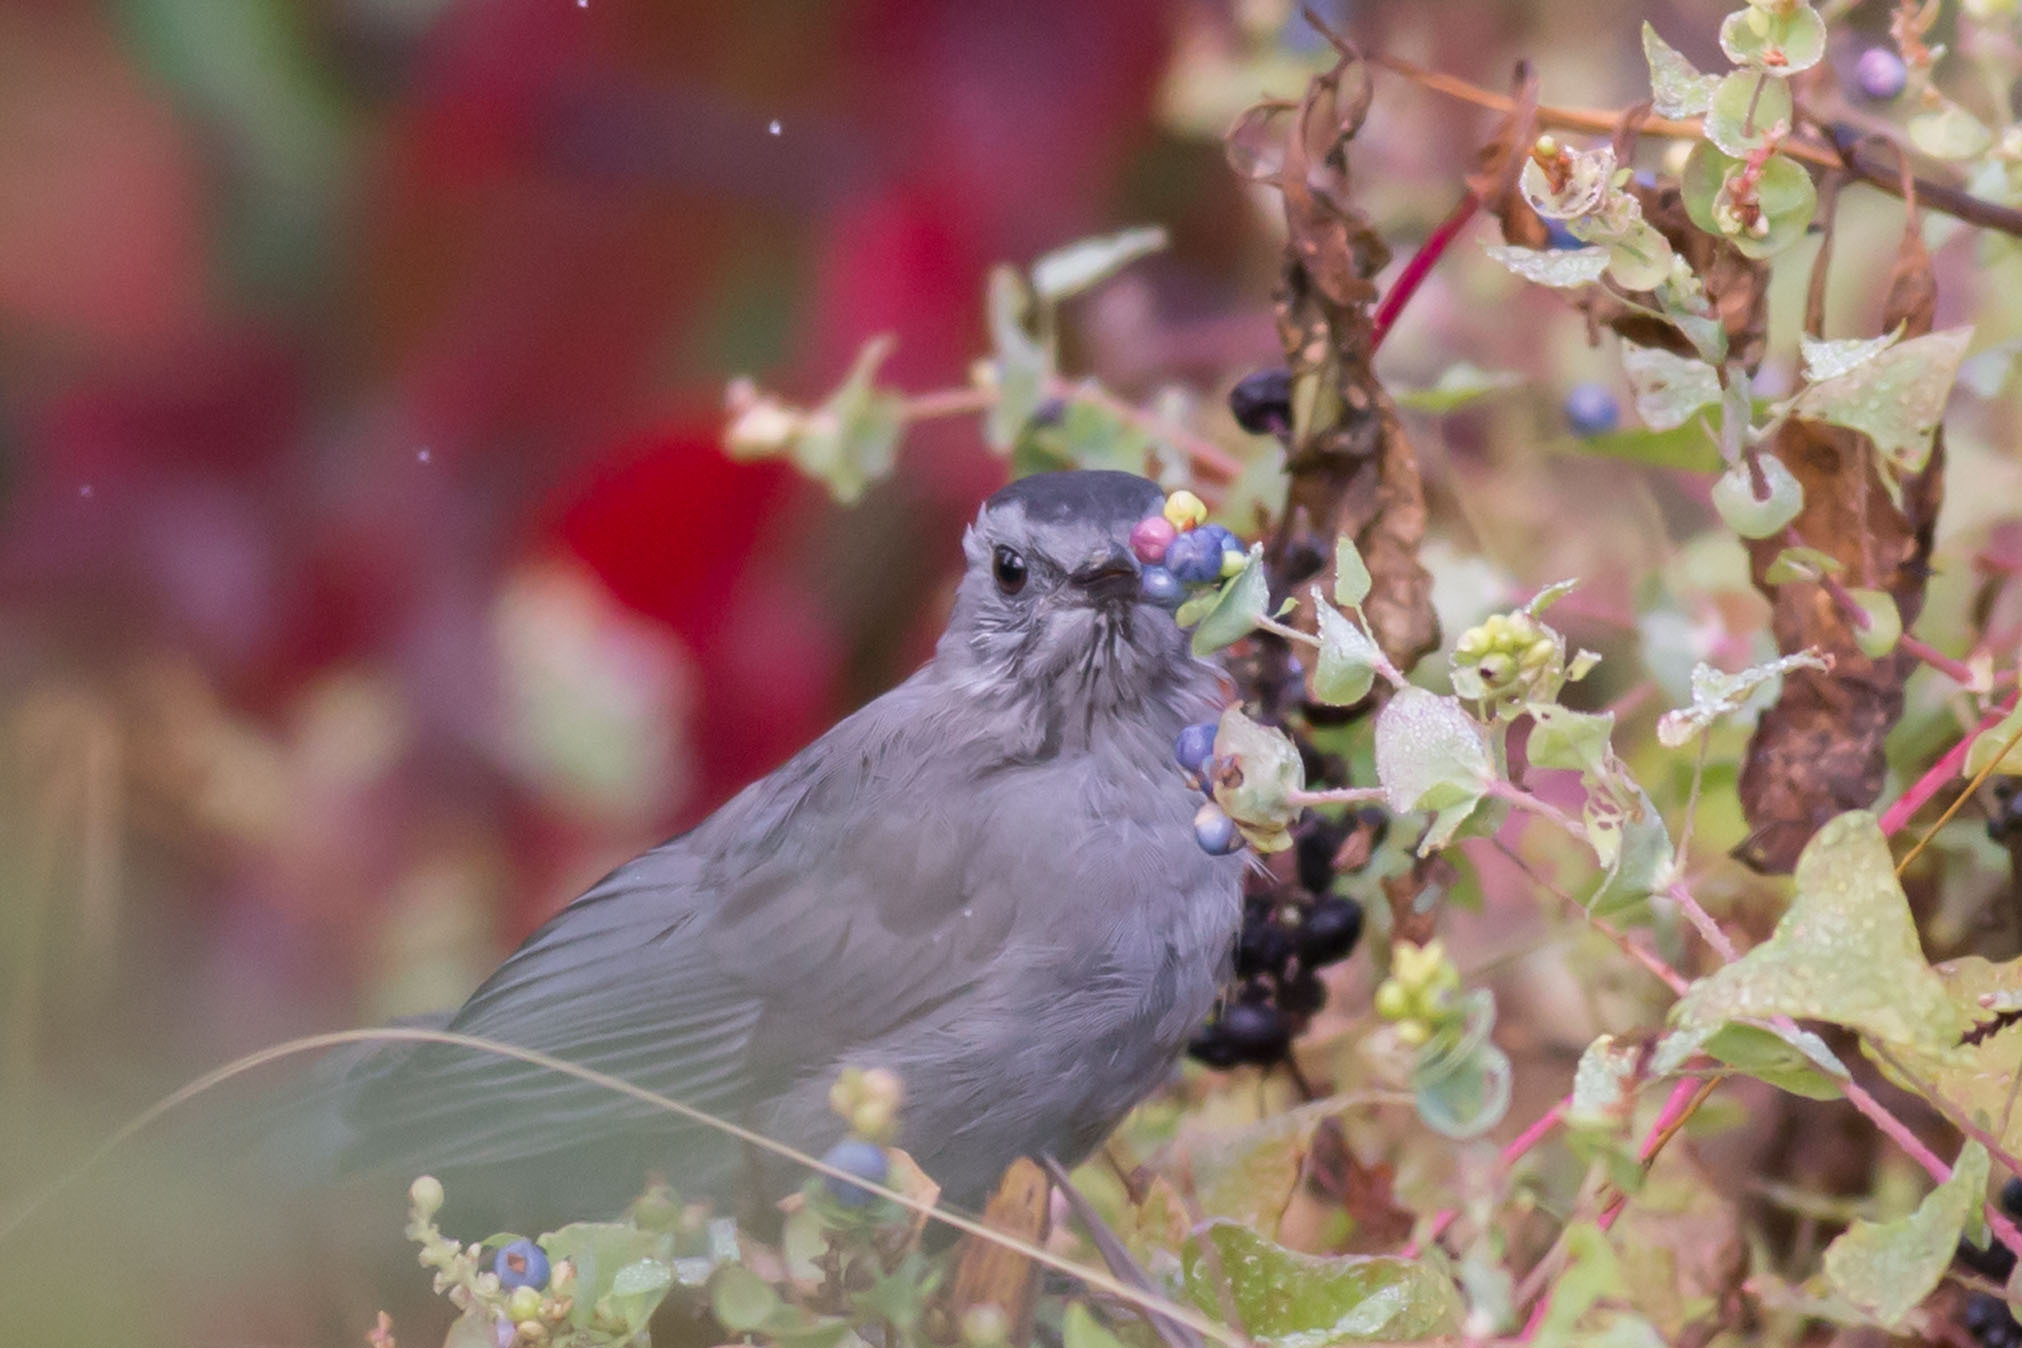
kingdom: Animalia
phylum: Chordata
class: Aves
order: Passeriformes
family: Mimidae
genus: Dumetella
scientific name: Dumetella carolinensis
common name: Gray catbird
